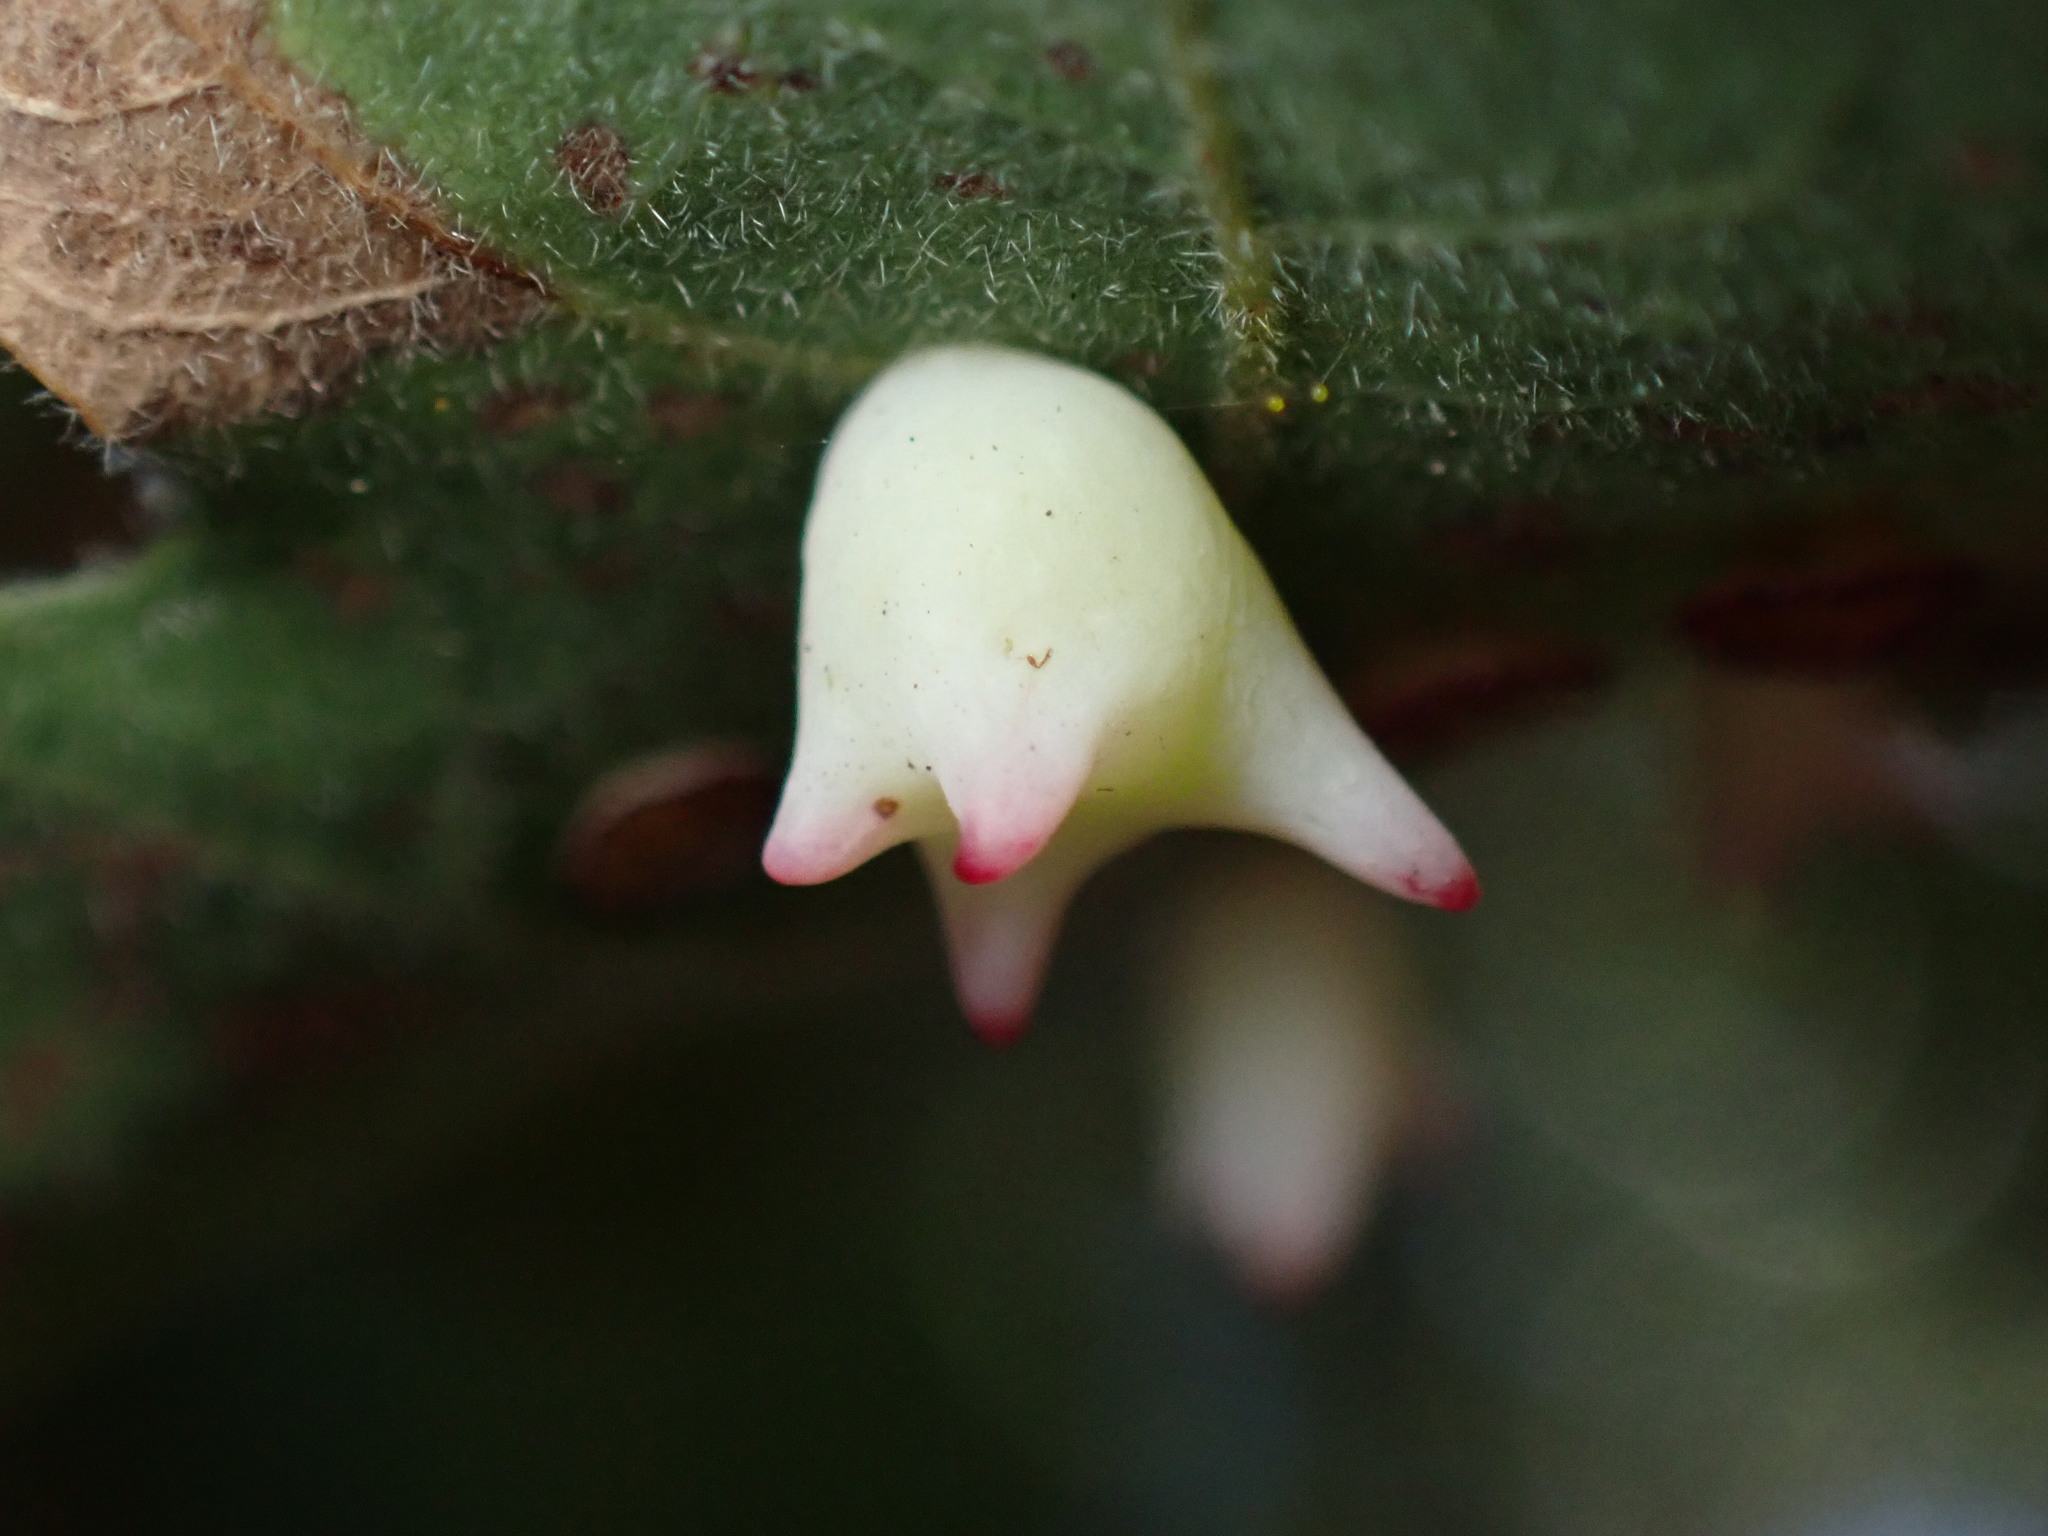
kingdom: Animalia
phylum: Arthropoda
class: Insecta
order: Hymenoptera
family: Cynipidae
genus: Cynips
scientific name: Cynips douglasi
